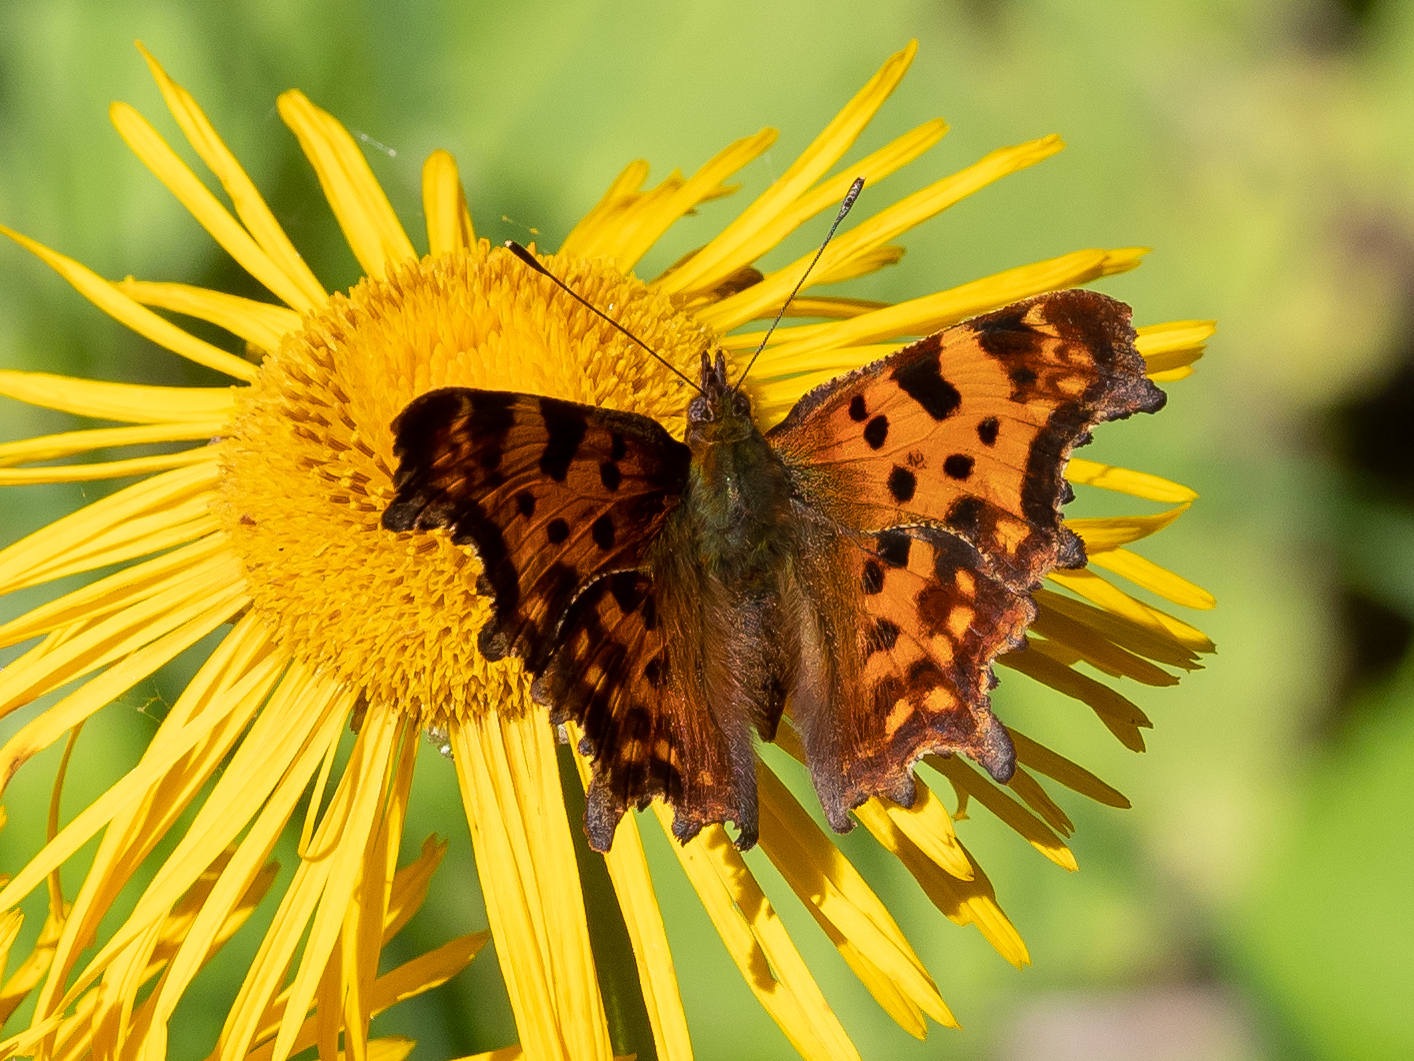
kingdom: Animalia
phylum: Arthropoda
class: Insecta
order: Lepidoptera
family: Nymphalidae
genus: Polygonia
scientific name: Polygonia c-album
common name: Comma
